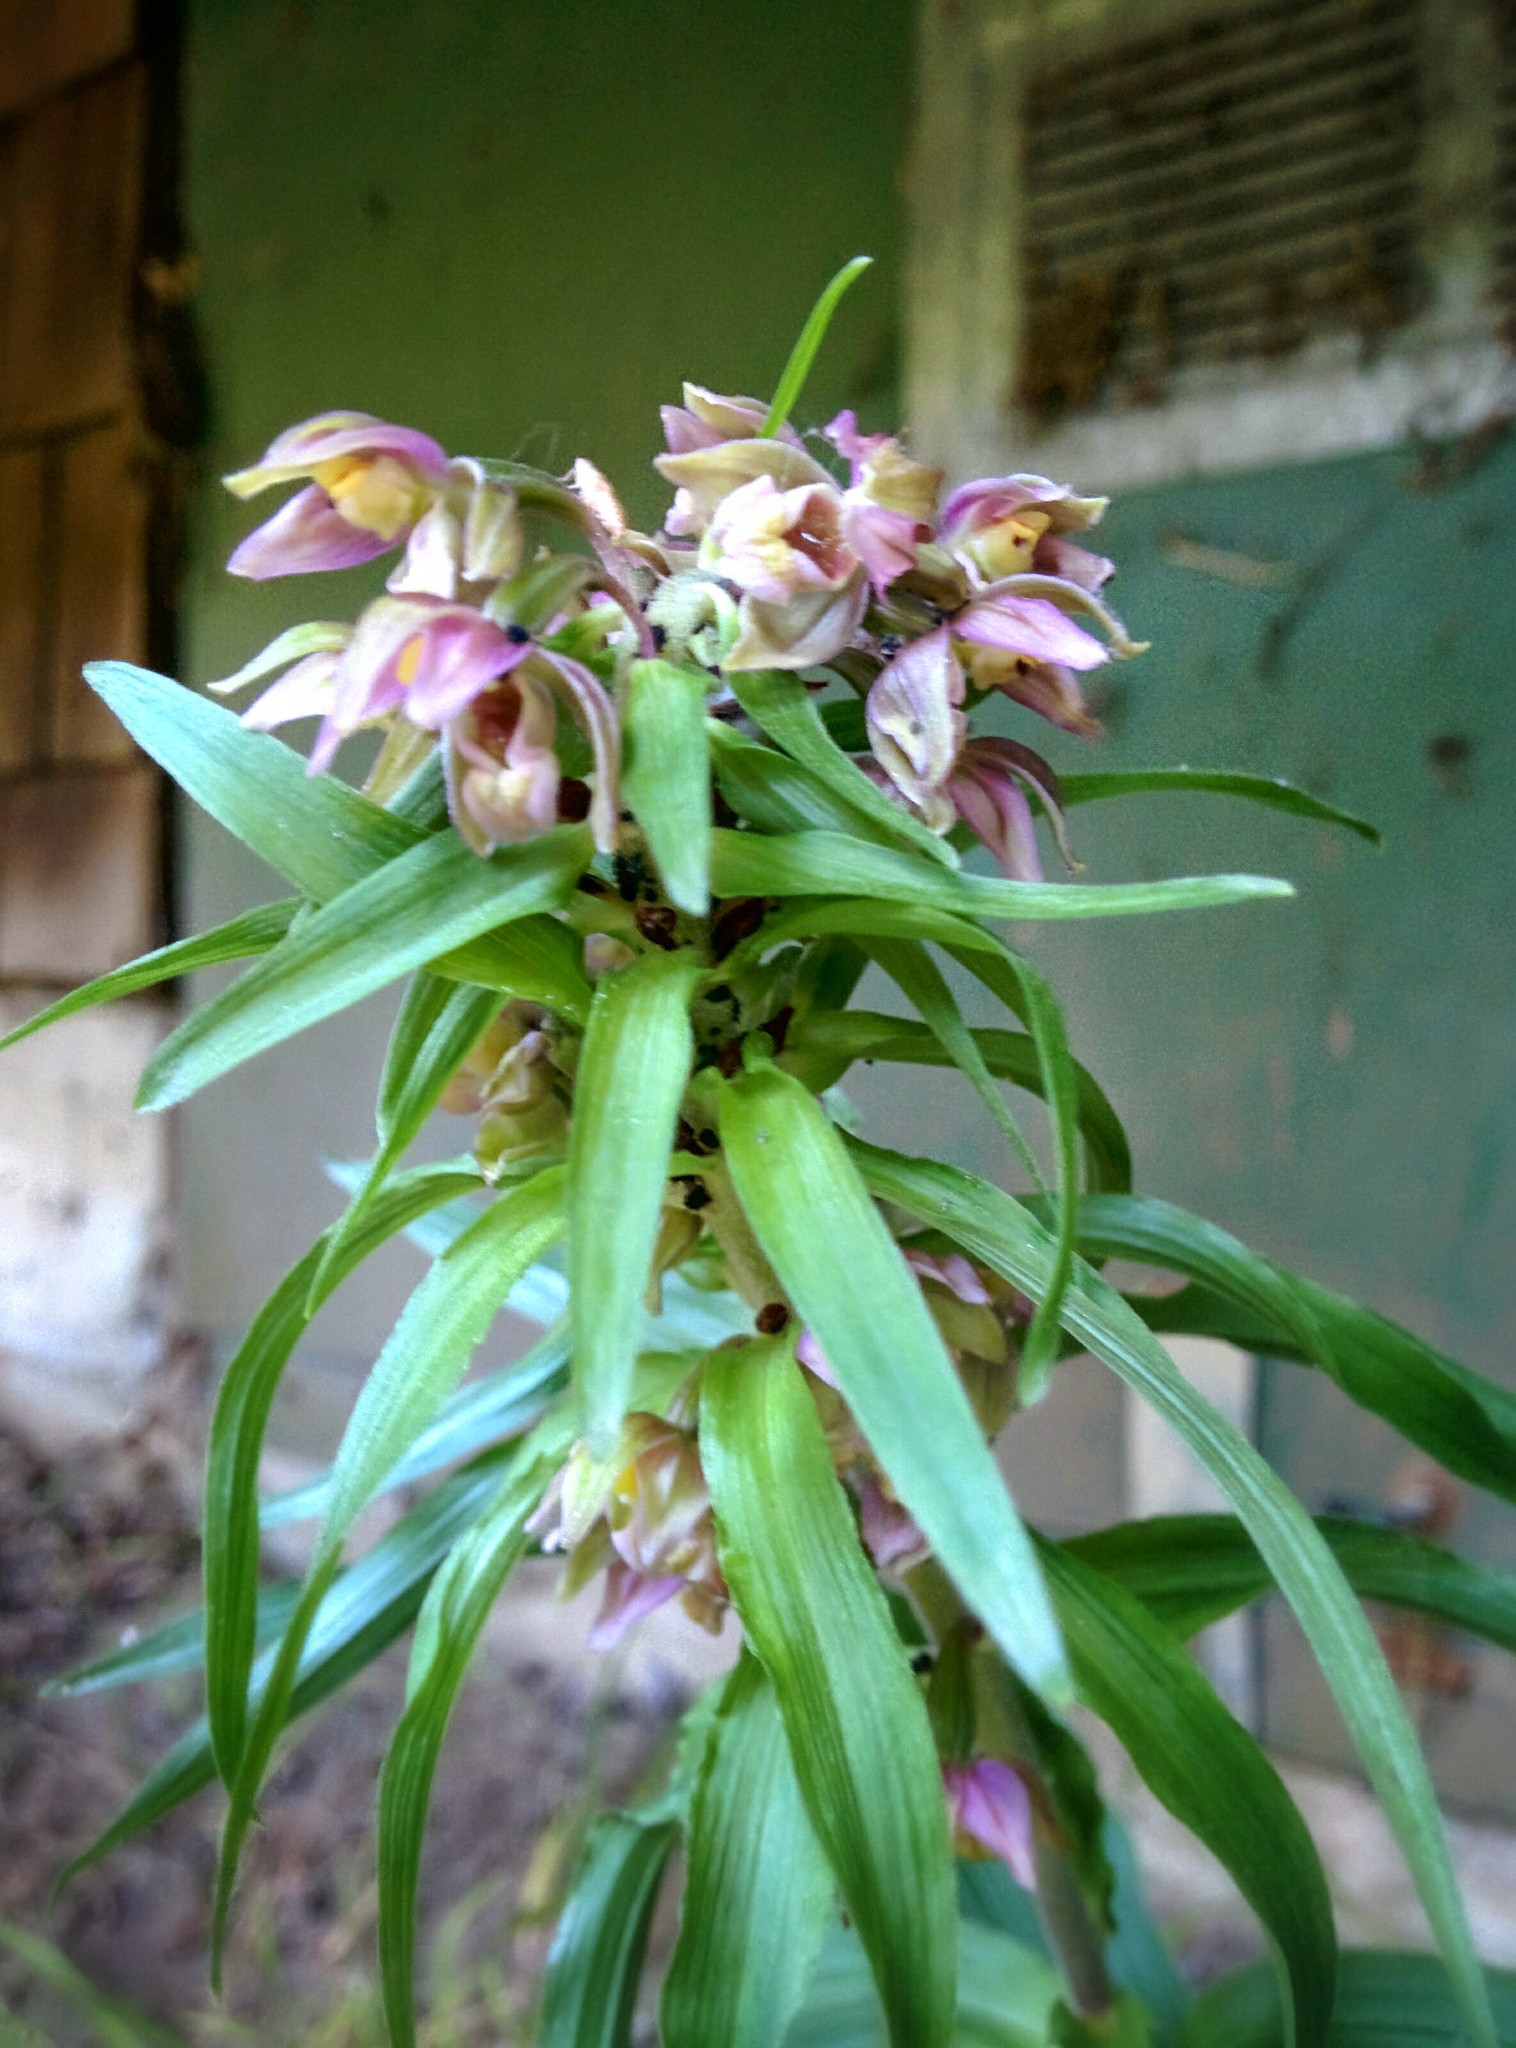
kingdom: Plantae
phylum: Tracheophyta
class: Liliopsida
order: Asparagales
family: Orchidaceae
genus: Epipactis
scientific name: Epipactis helleborine
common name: Broad-leaved helleborine
